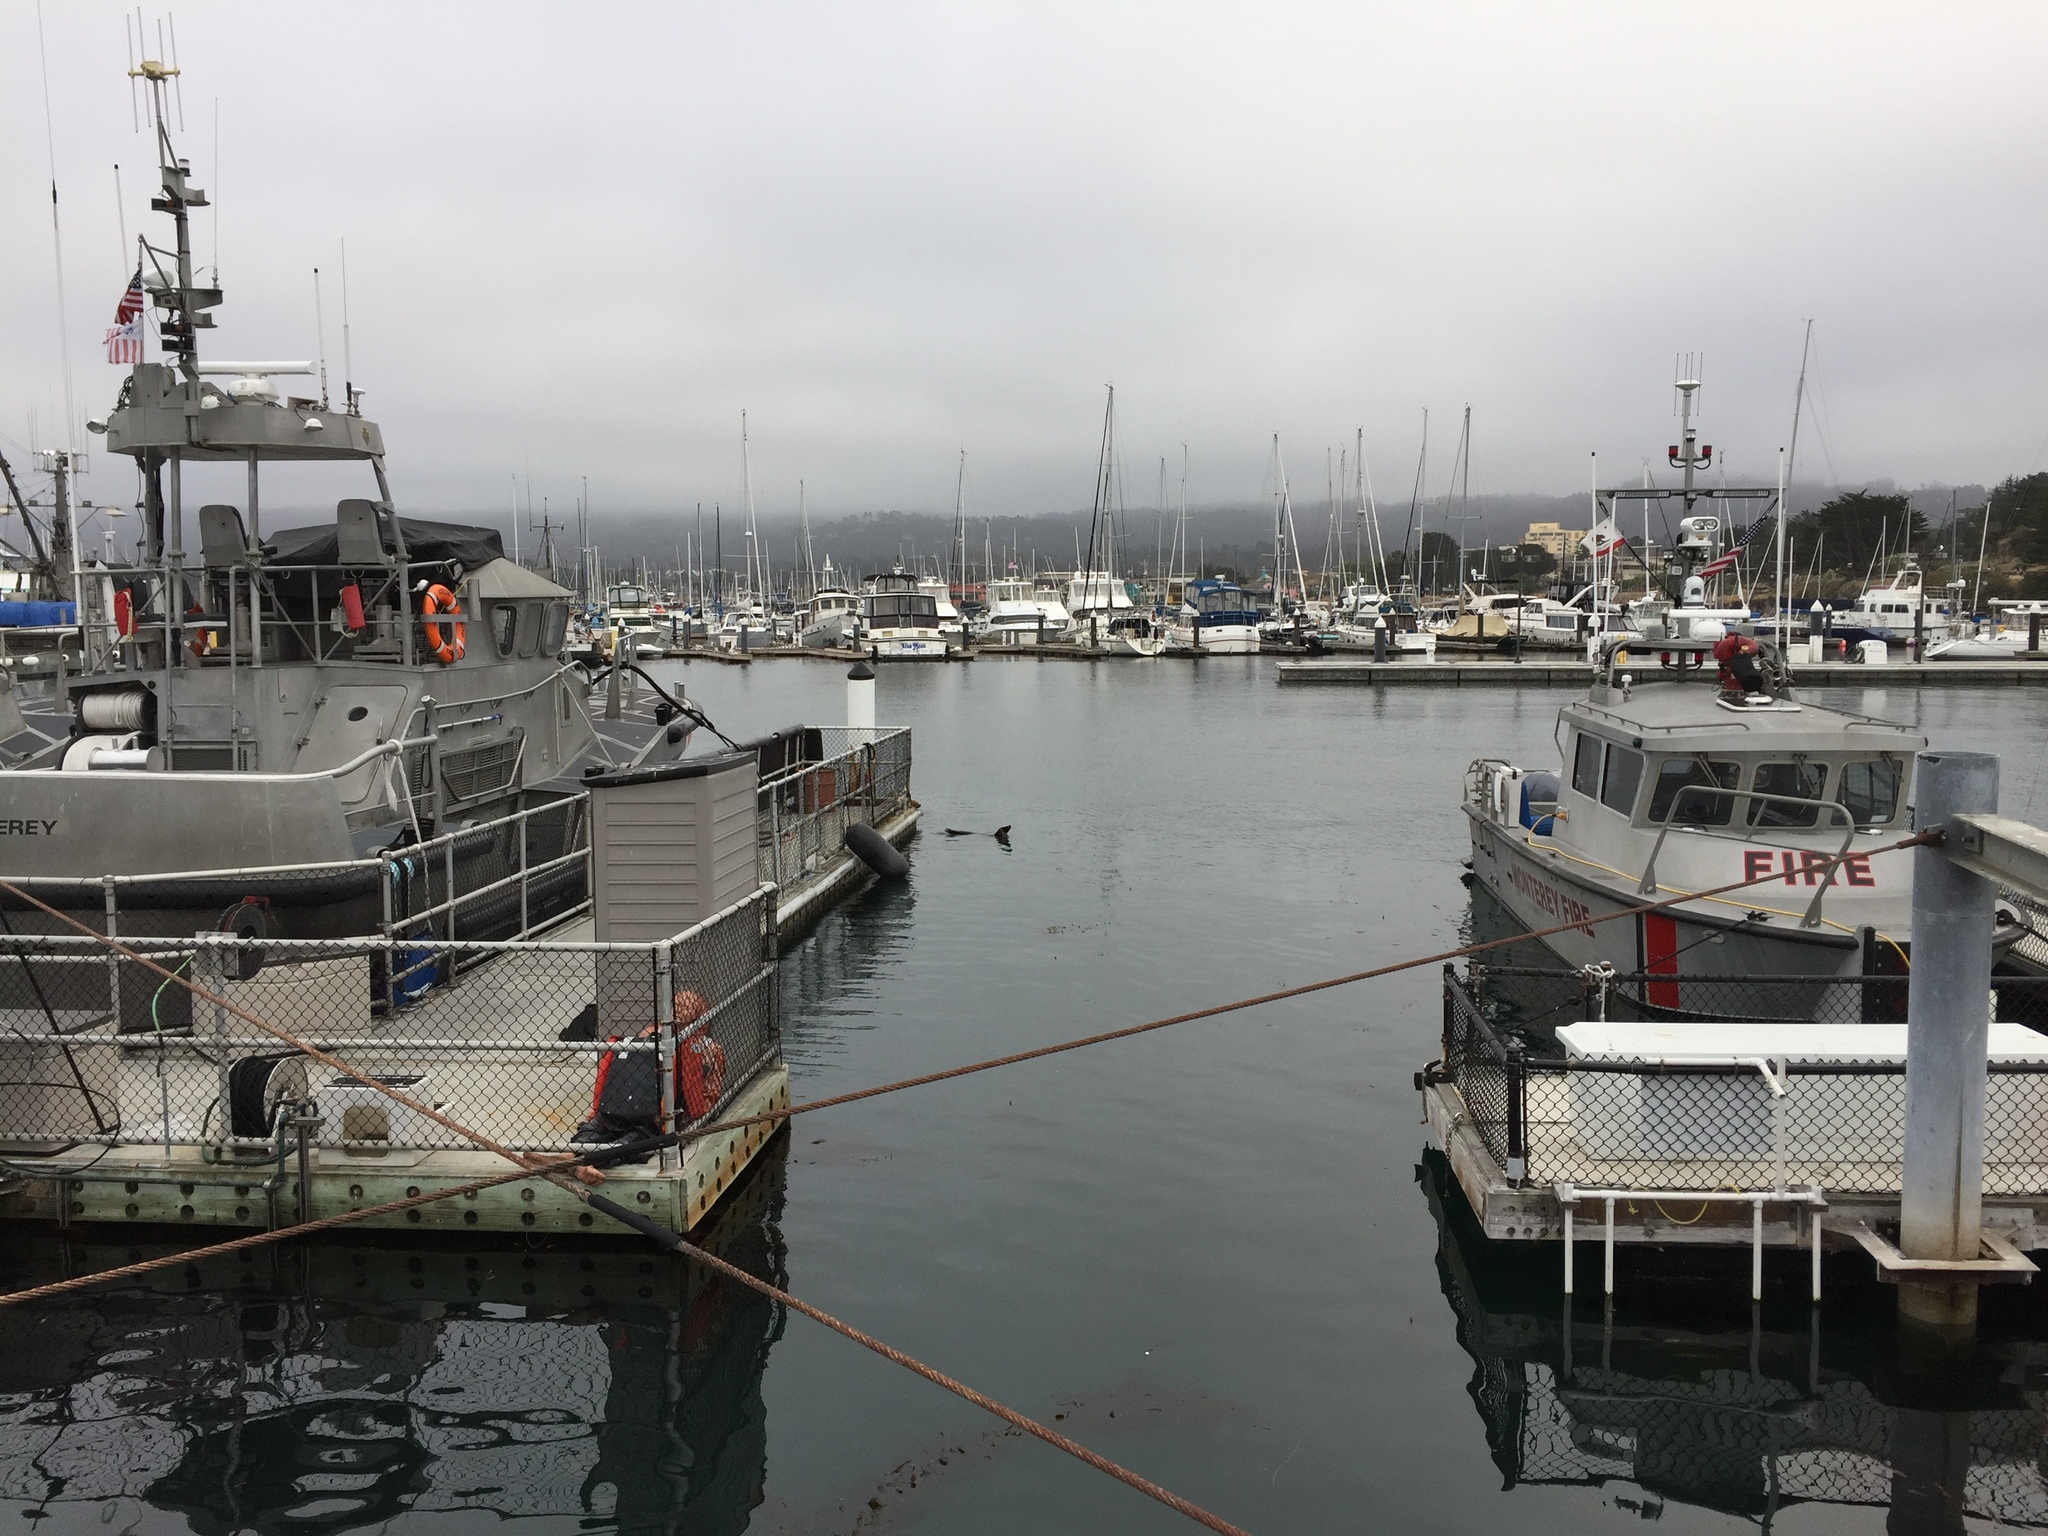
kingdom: Animalia
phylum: Chordata
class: Mammalia
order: Carnivora
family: Otariidae
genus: Zalophus
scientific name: Zalophus californianus
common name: California sea lion
